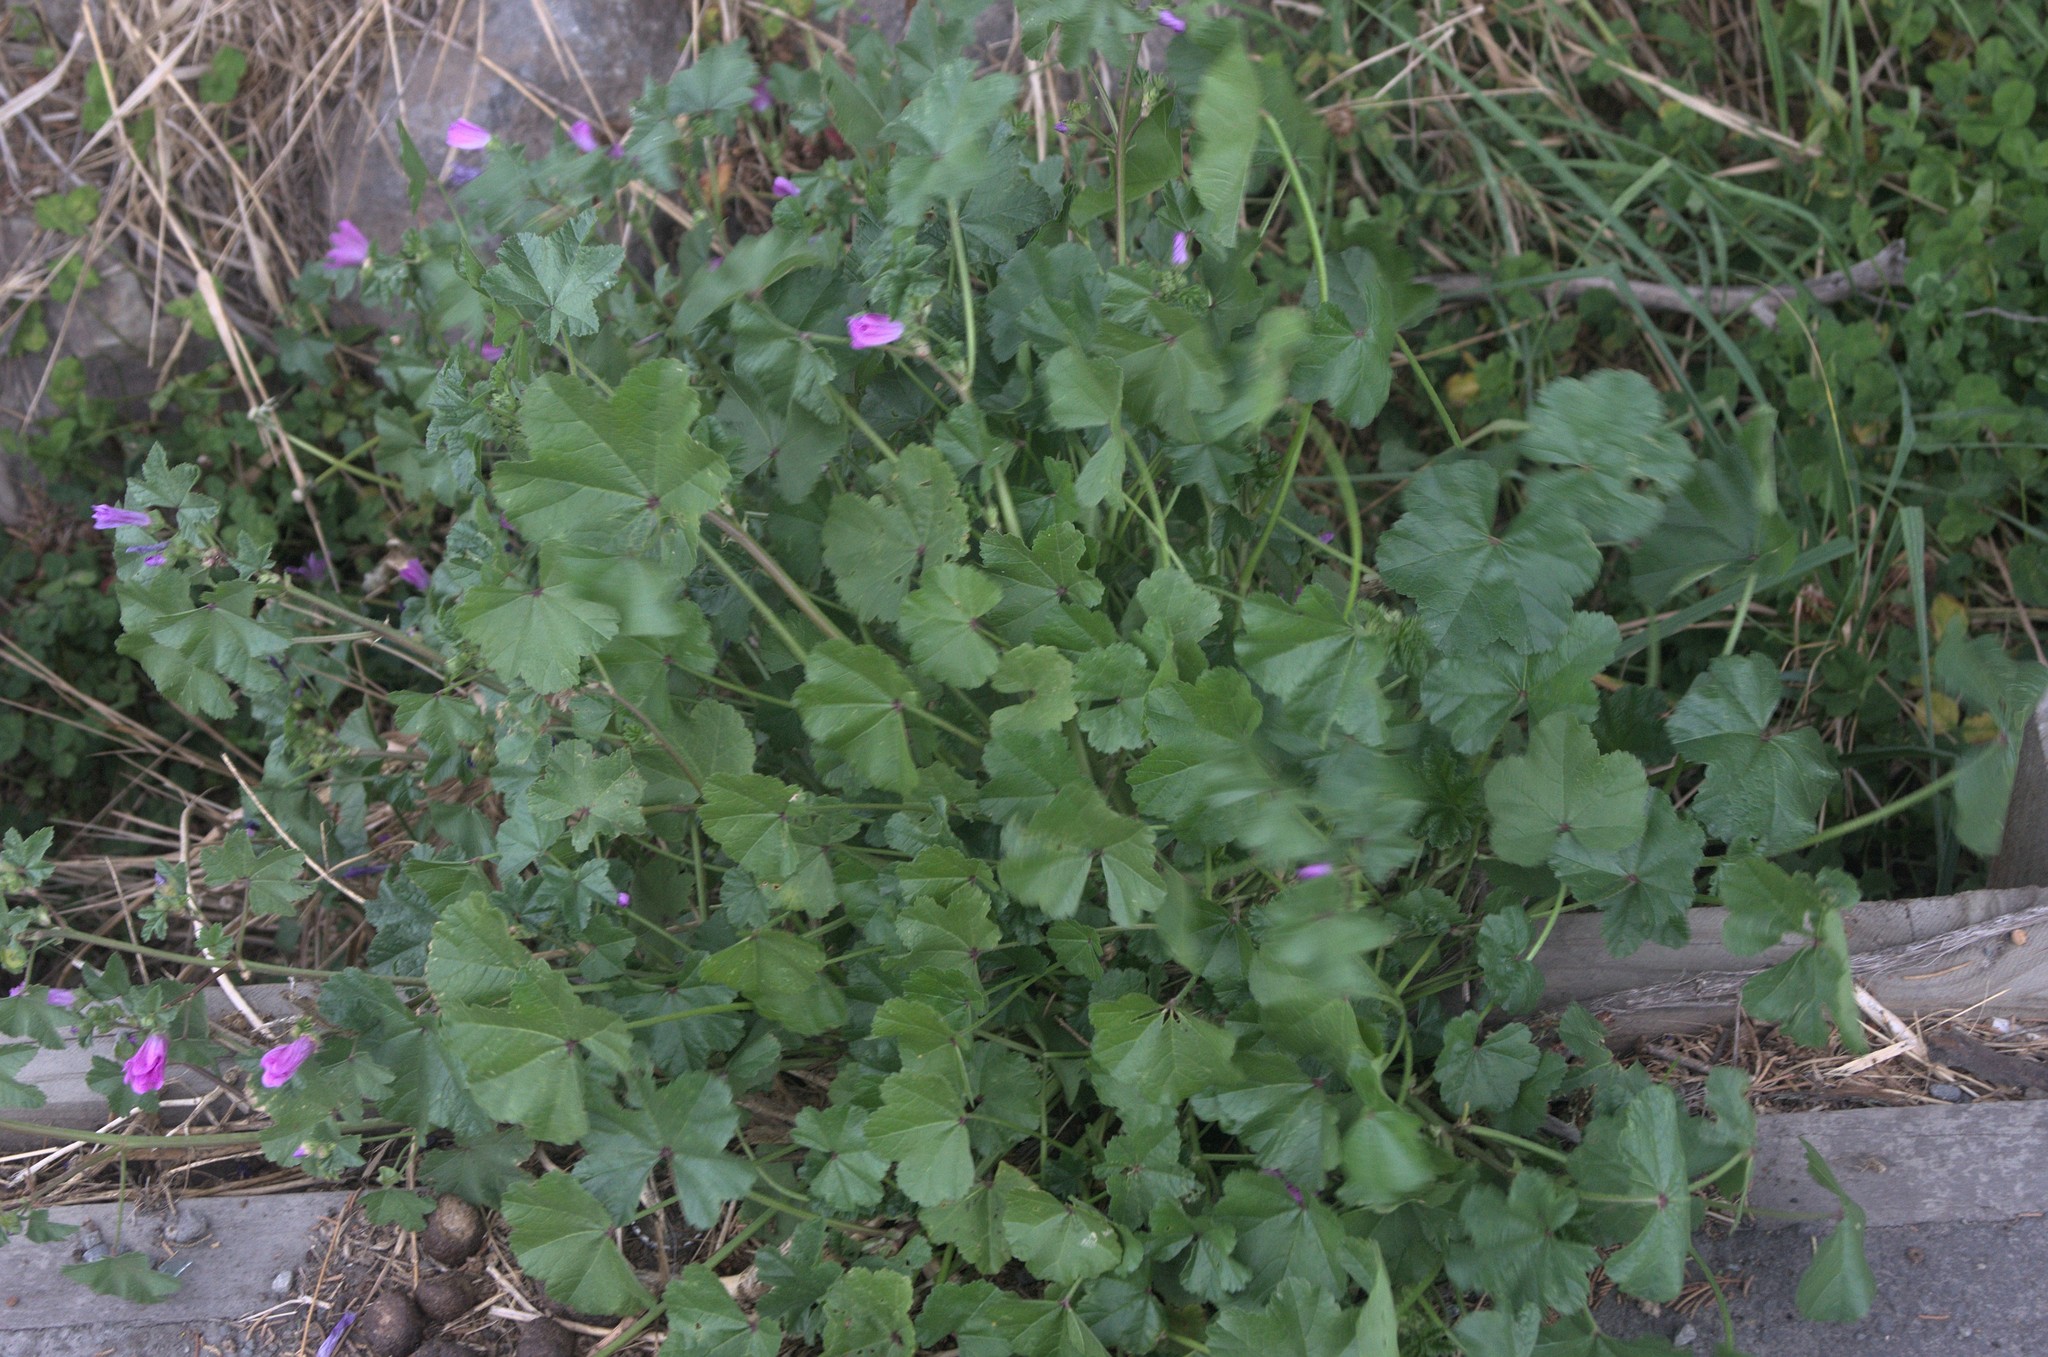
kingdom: Plantae
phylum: Tracheophyta
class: Magnoliopsida
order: Malvales
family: Malvaceae
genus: Malva
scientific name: Malva sylvestris
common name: Common mallow
